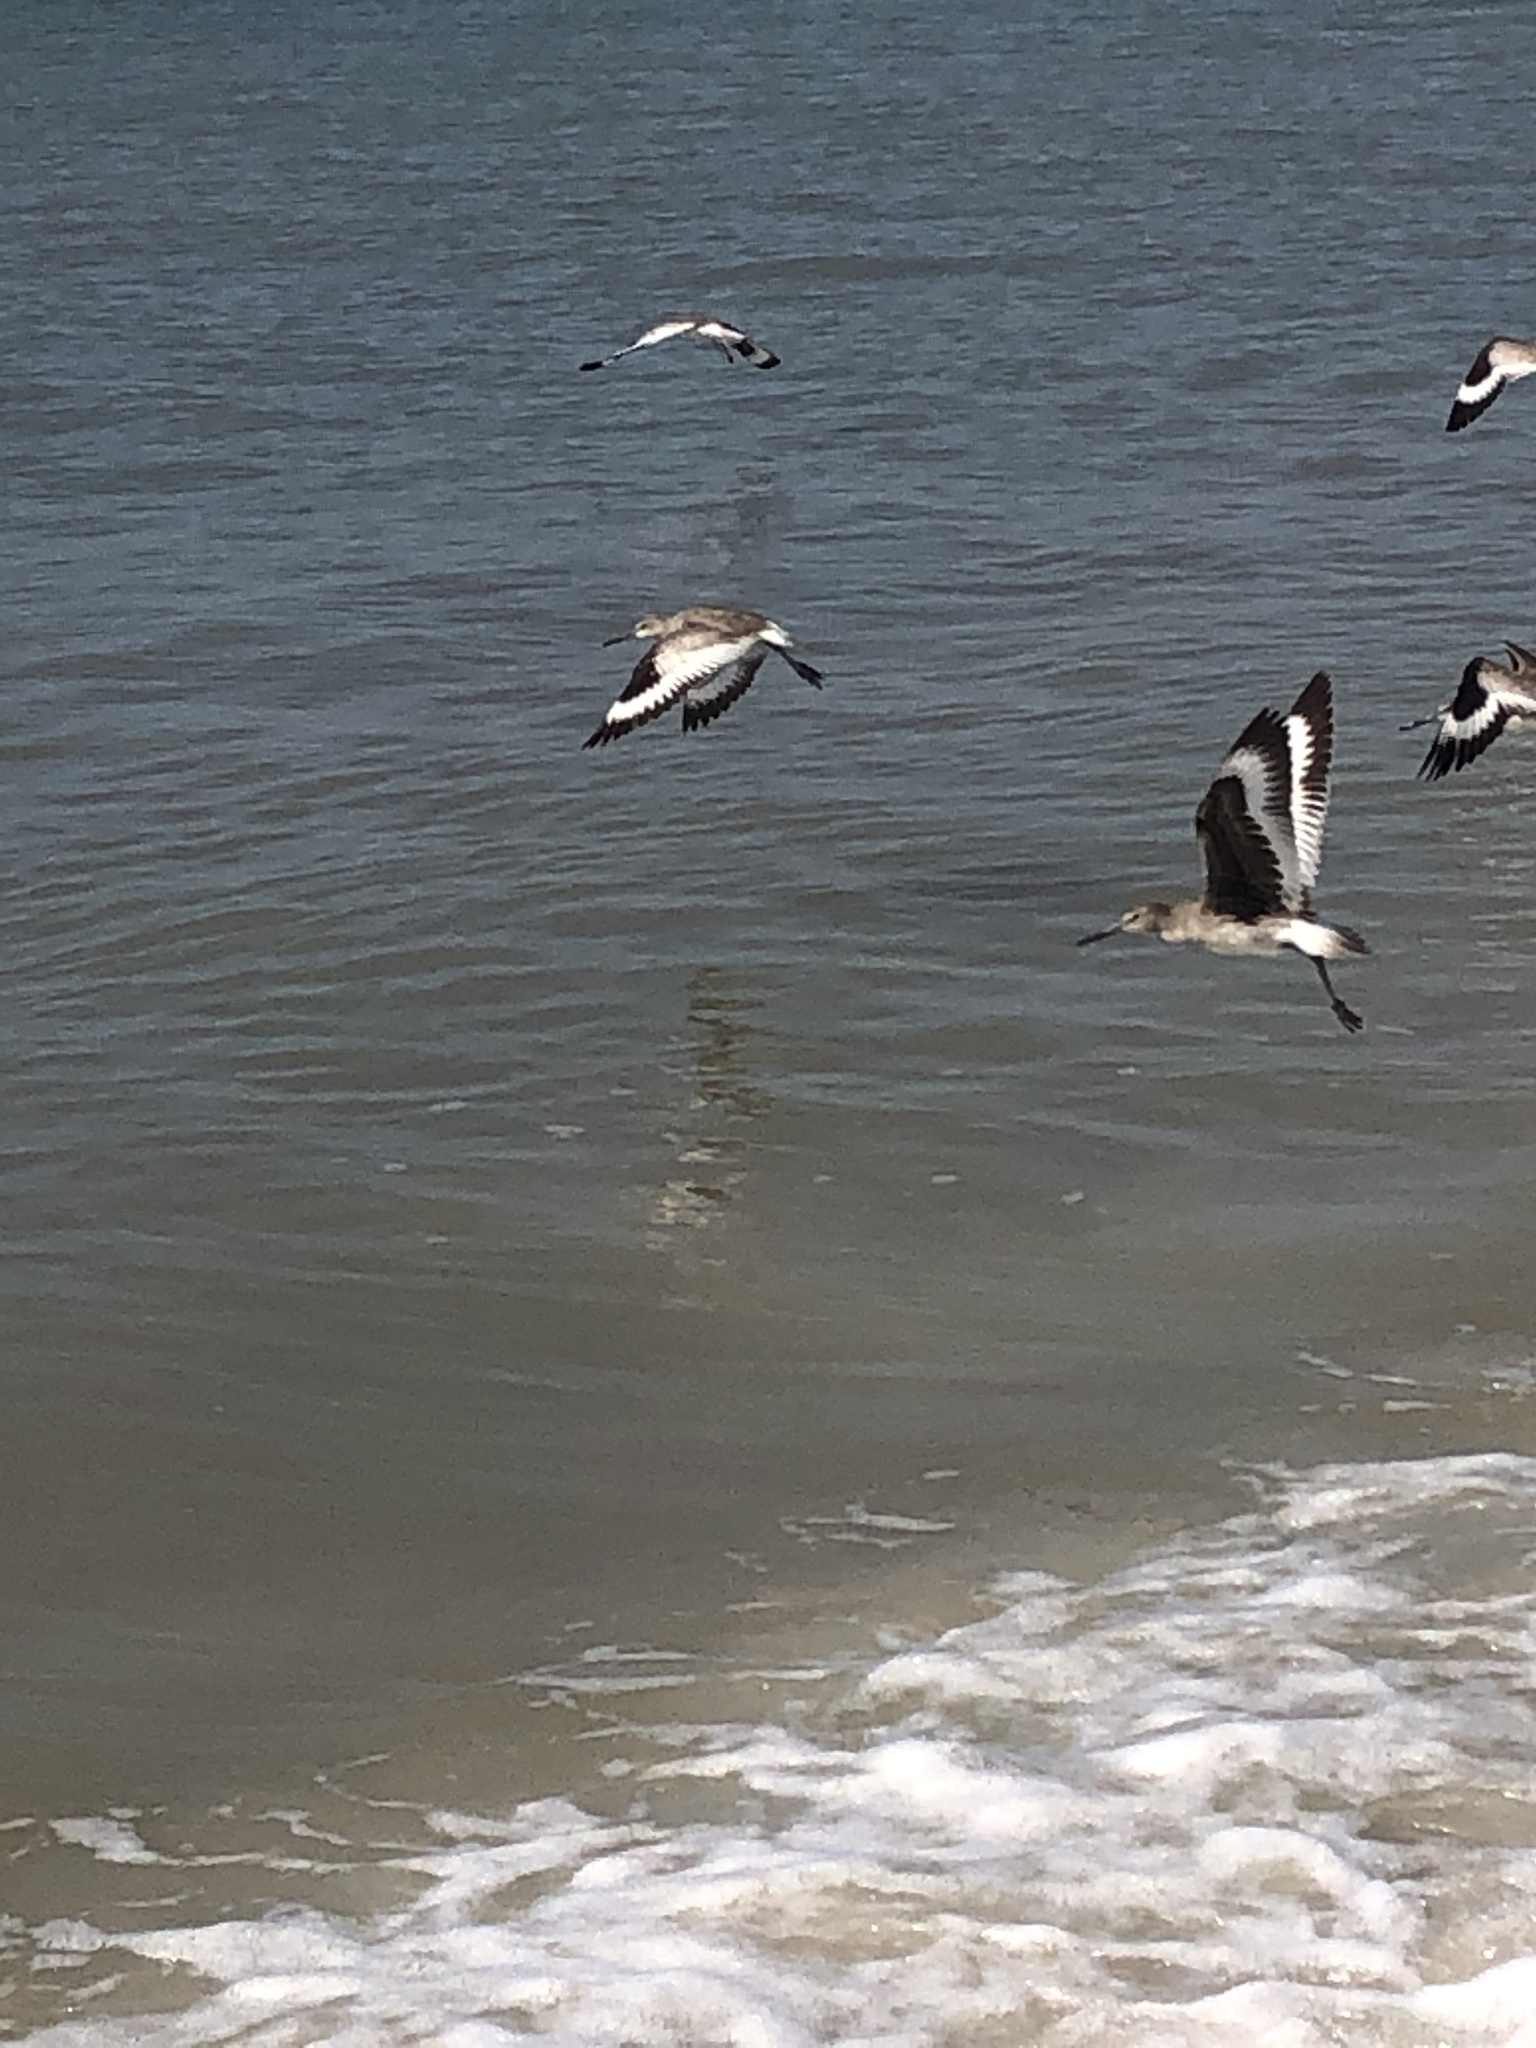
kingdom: Animalia
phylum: Chordata
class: Aves
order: Charadriiformes
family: Scolopacidae
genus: Tringa
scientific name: Tringa semipalmata
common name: Willet
